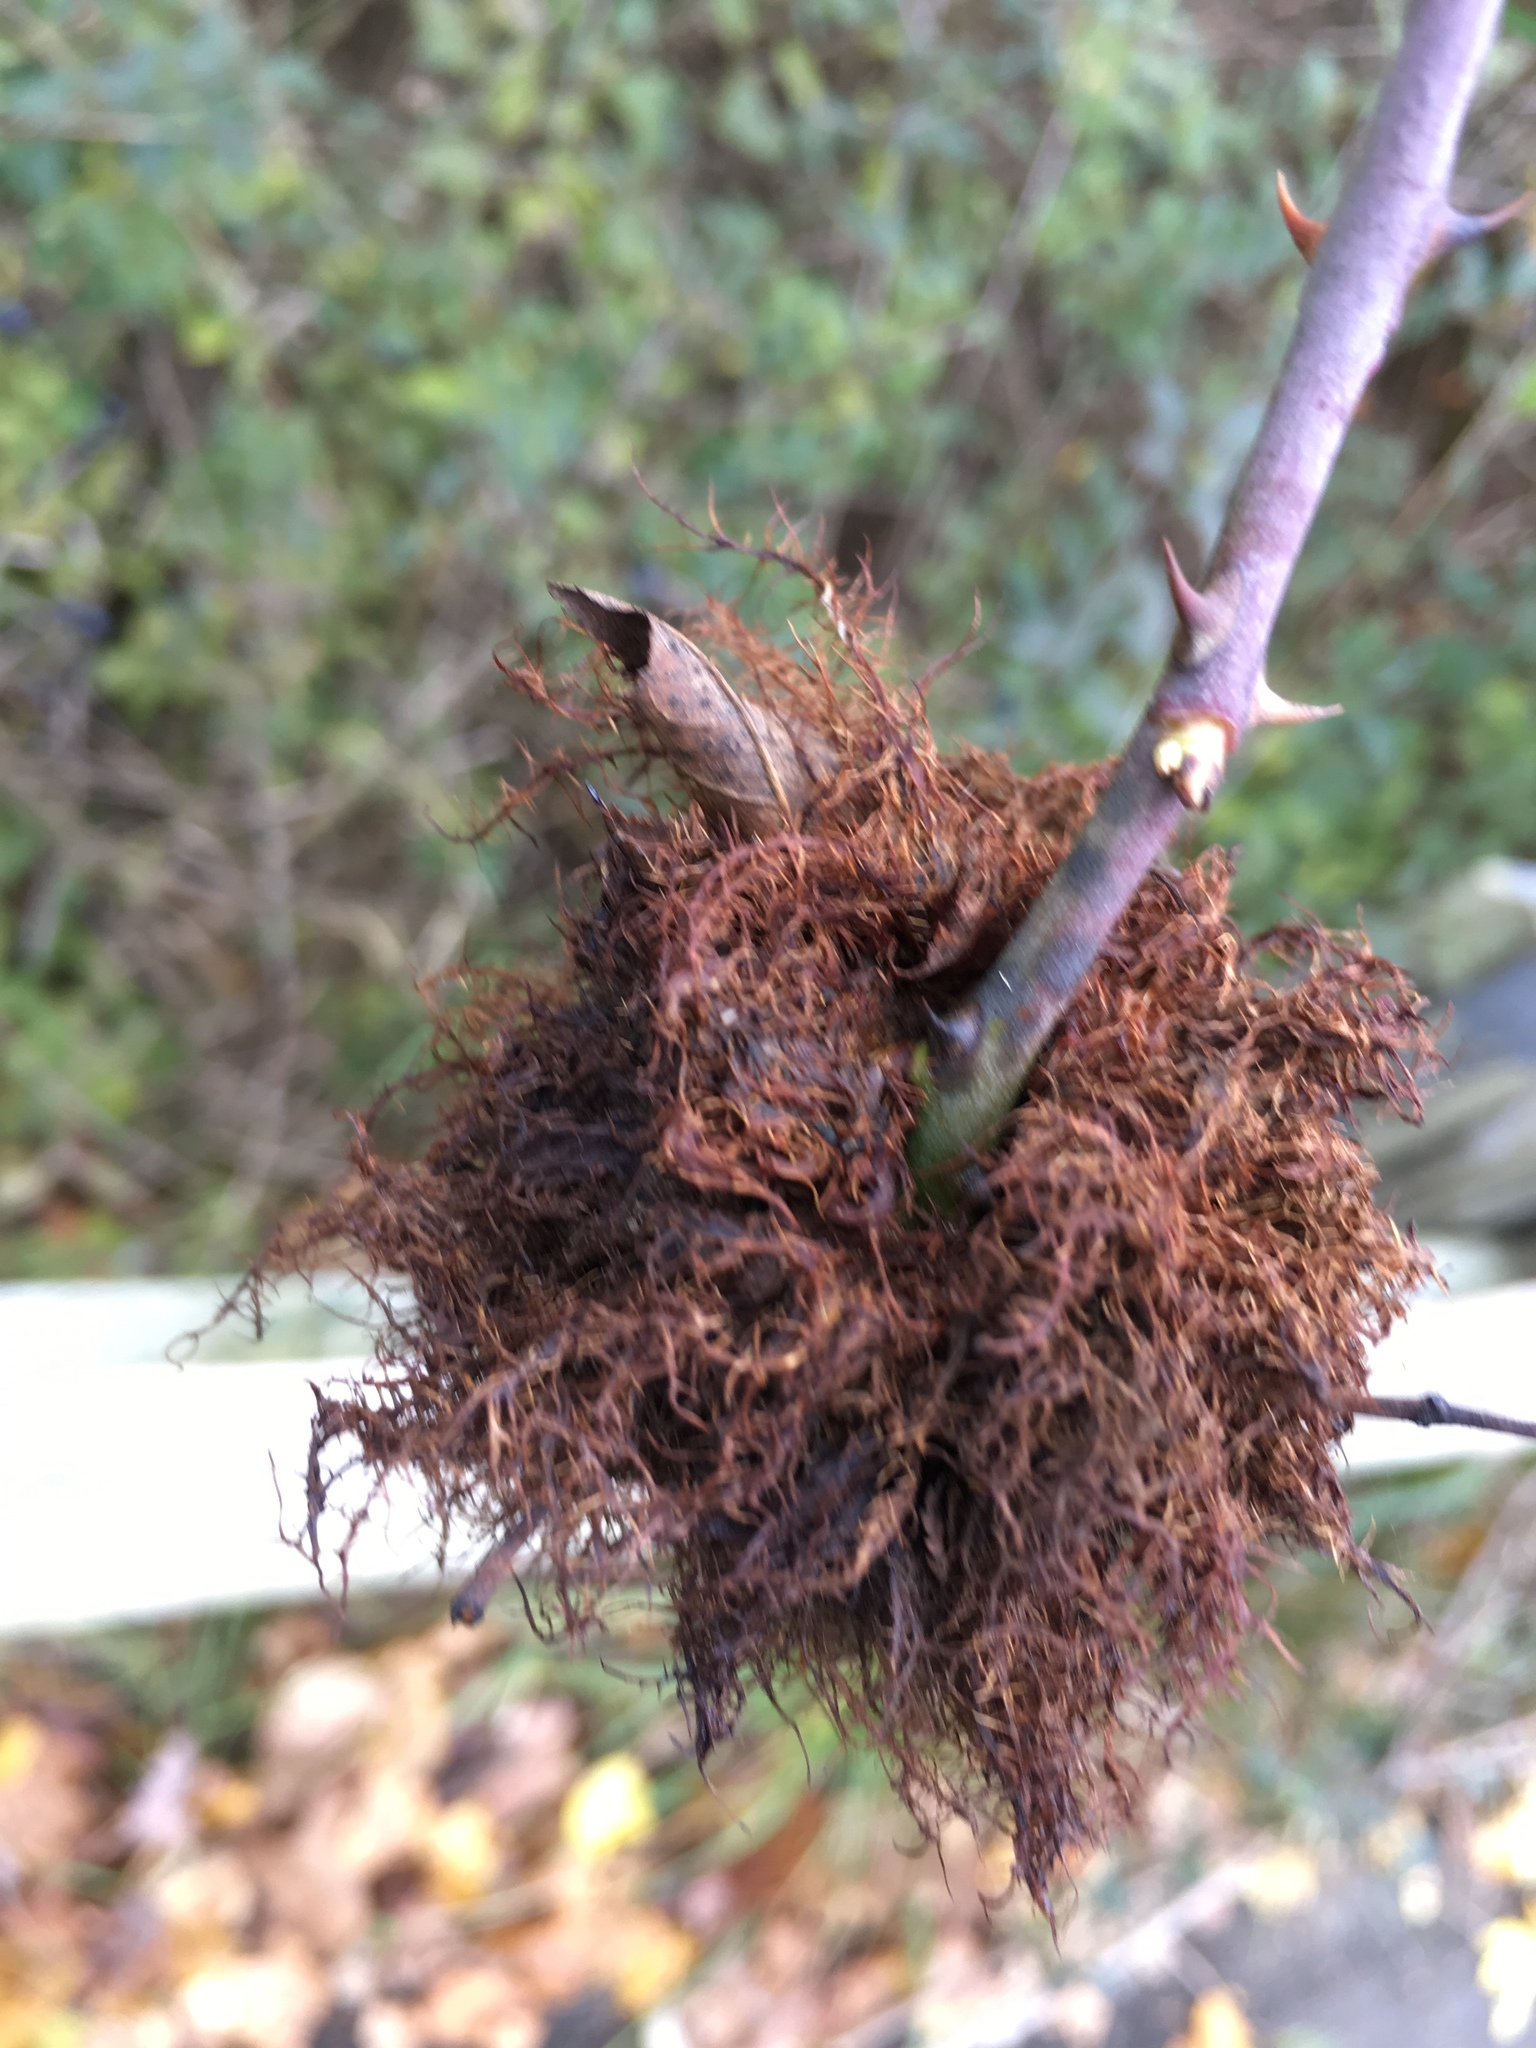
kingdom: Animalia
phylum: Arthropoda
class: Insecta
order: Hymenoptera
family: Cynipidae
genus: Diplolepis
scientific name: Diplolepis rosae
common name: Bedeguar gall
